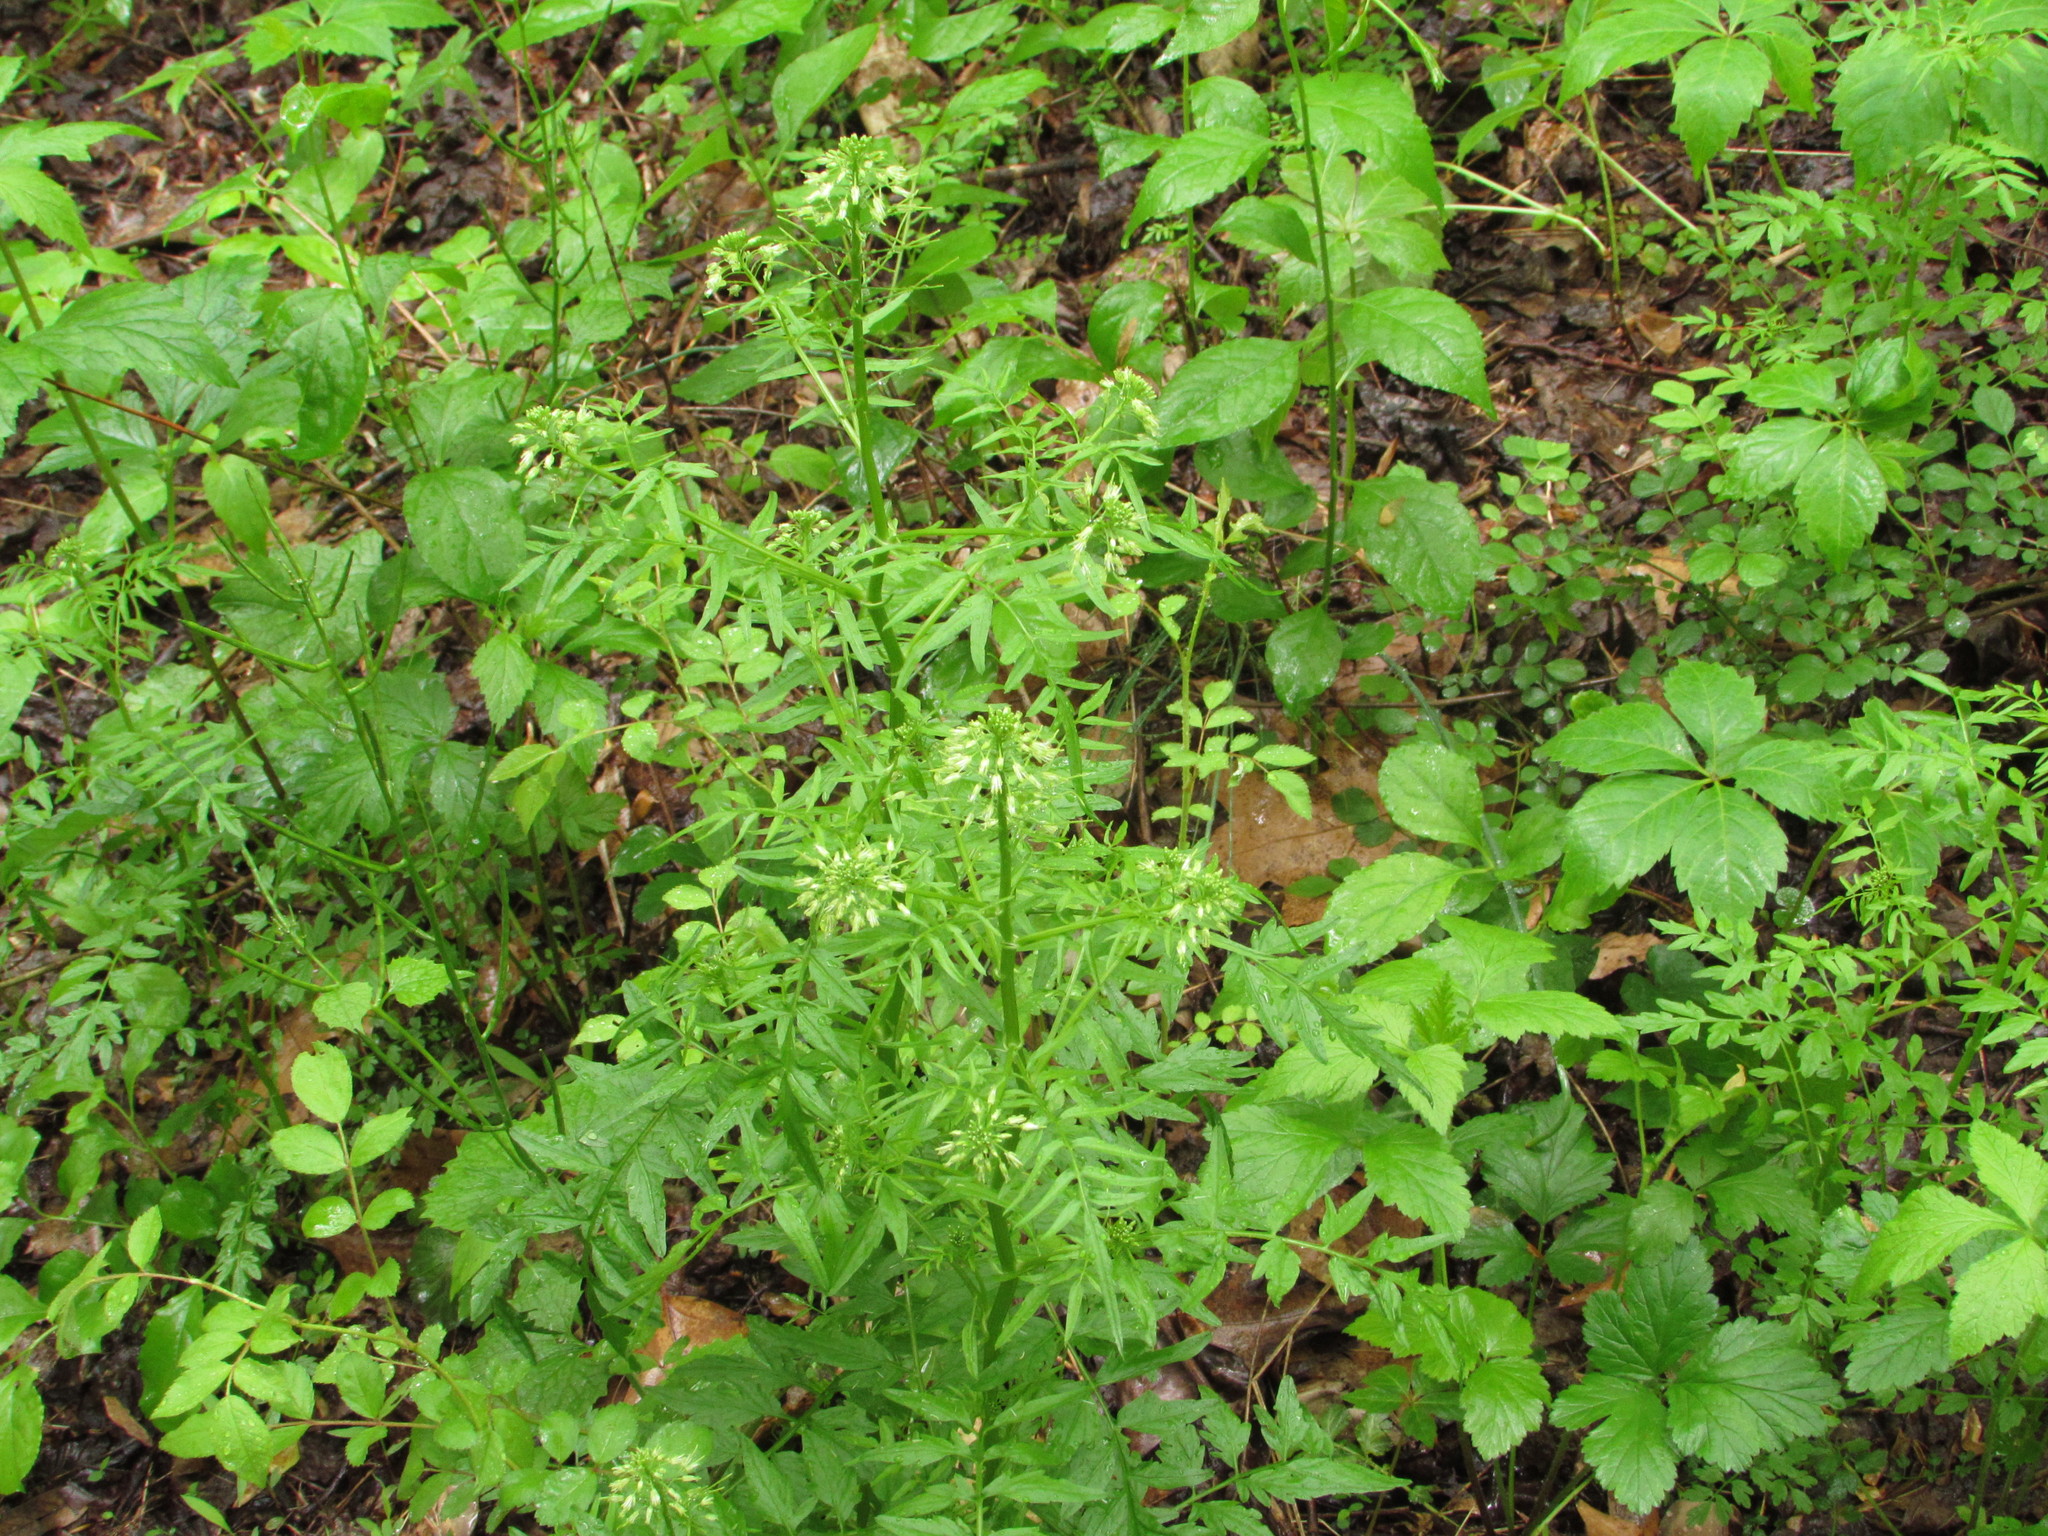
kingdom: Plantae
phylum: Tracheophyta
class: Magnoliopsida
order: Brassicales
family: Brassicaceae
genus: Cardamine
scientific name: Cardamine impatiens
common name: Narrow-leaved bitter-cress
